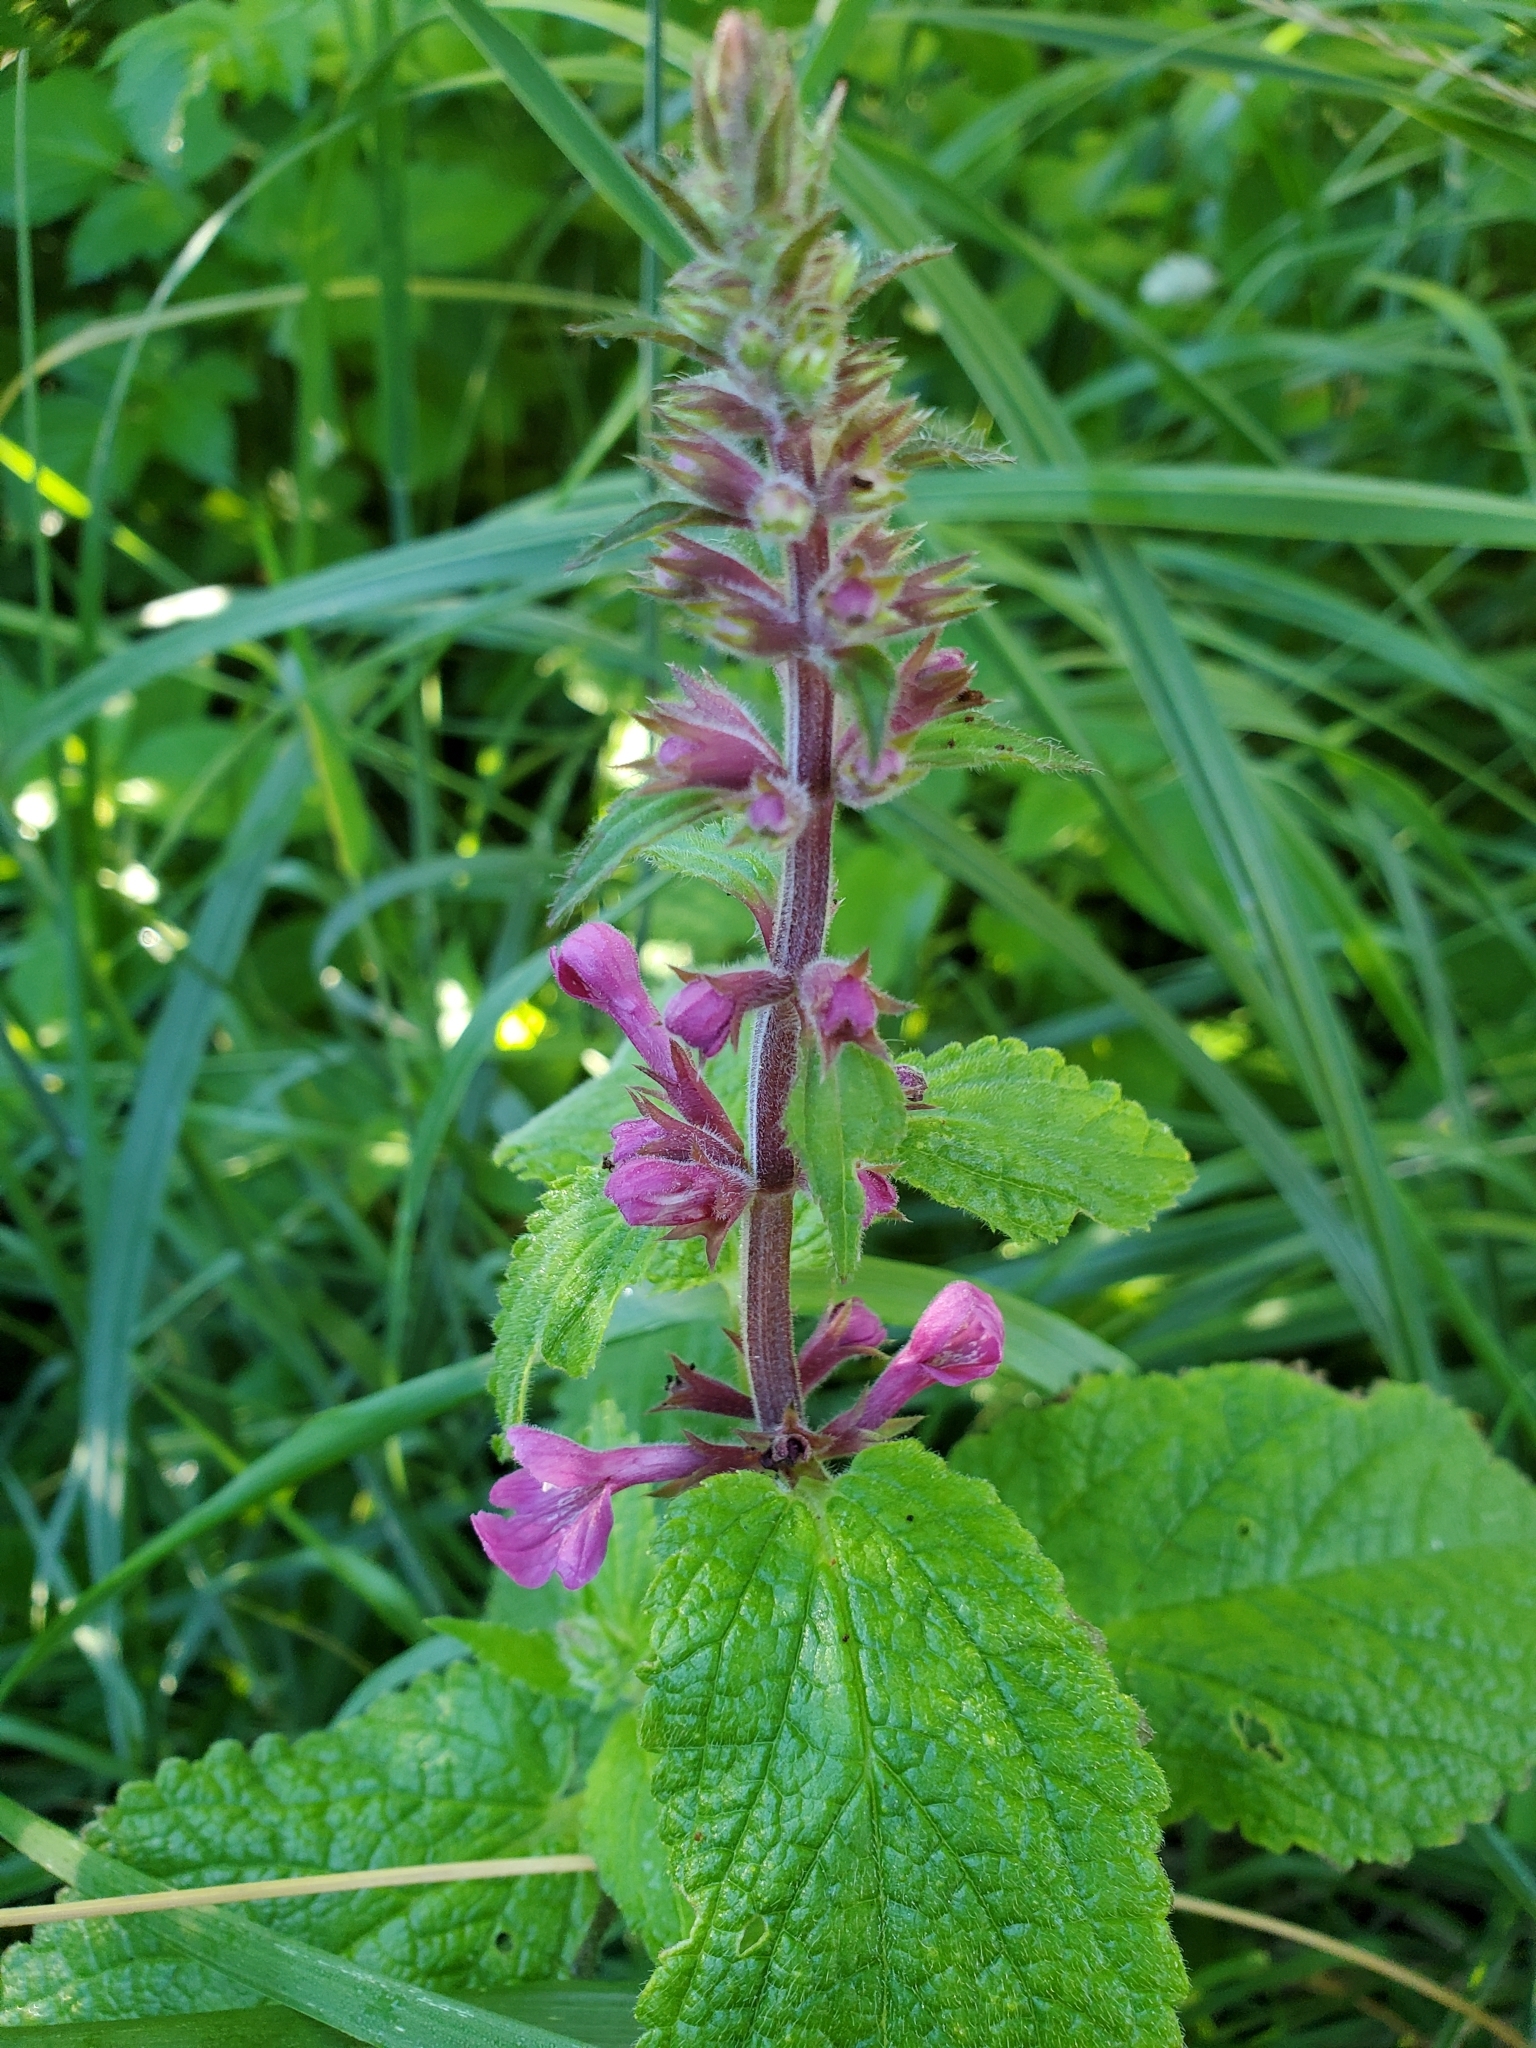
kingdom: Plantae
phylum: Tracheophyta
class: Magnoliopsida
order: Lamiales
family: Lamiaceae
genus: Stachys
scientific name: Stachys chamissonis
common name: Coastal hedge-nettle
